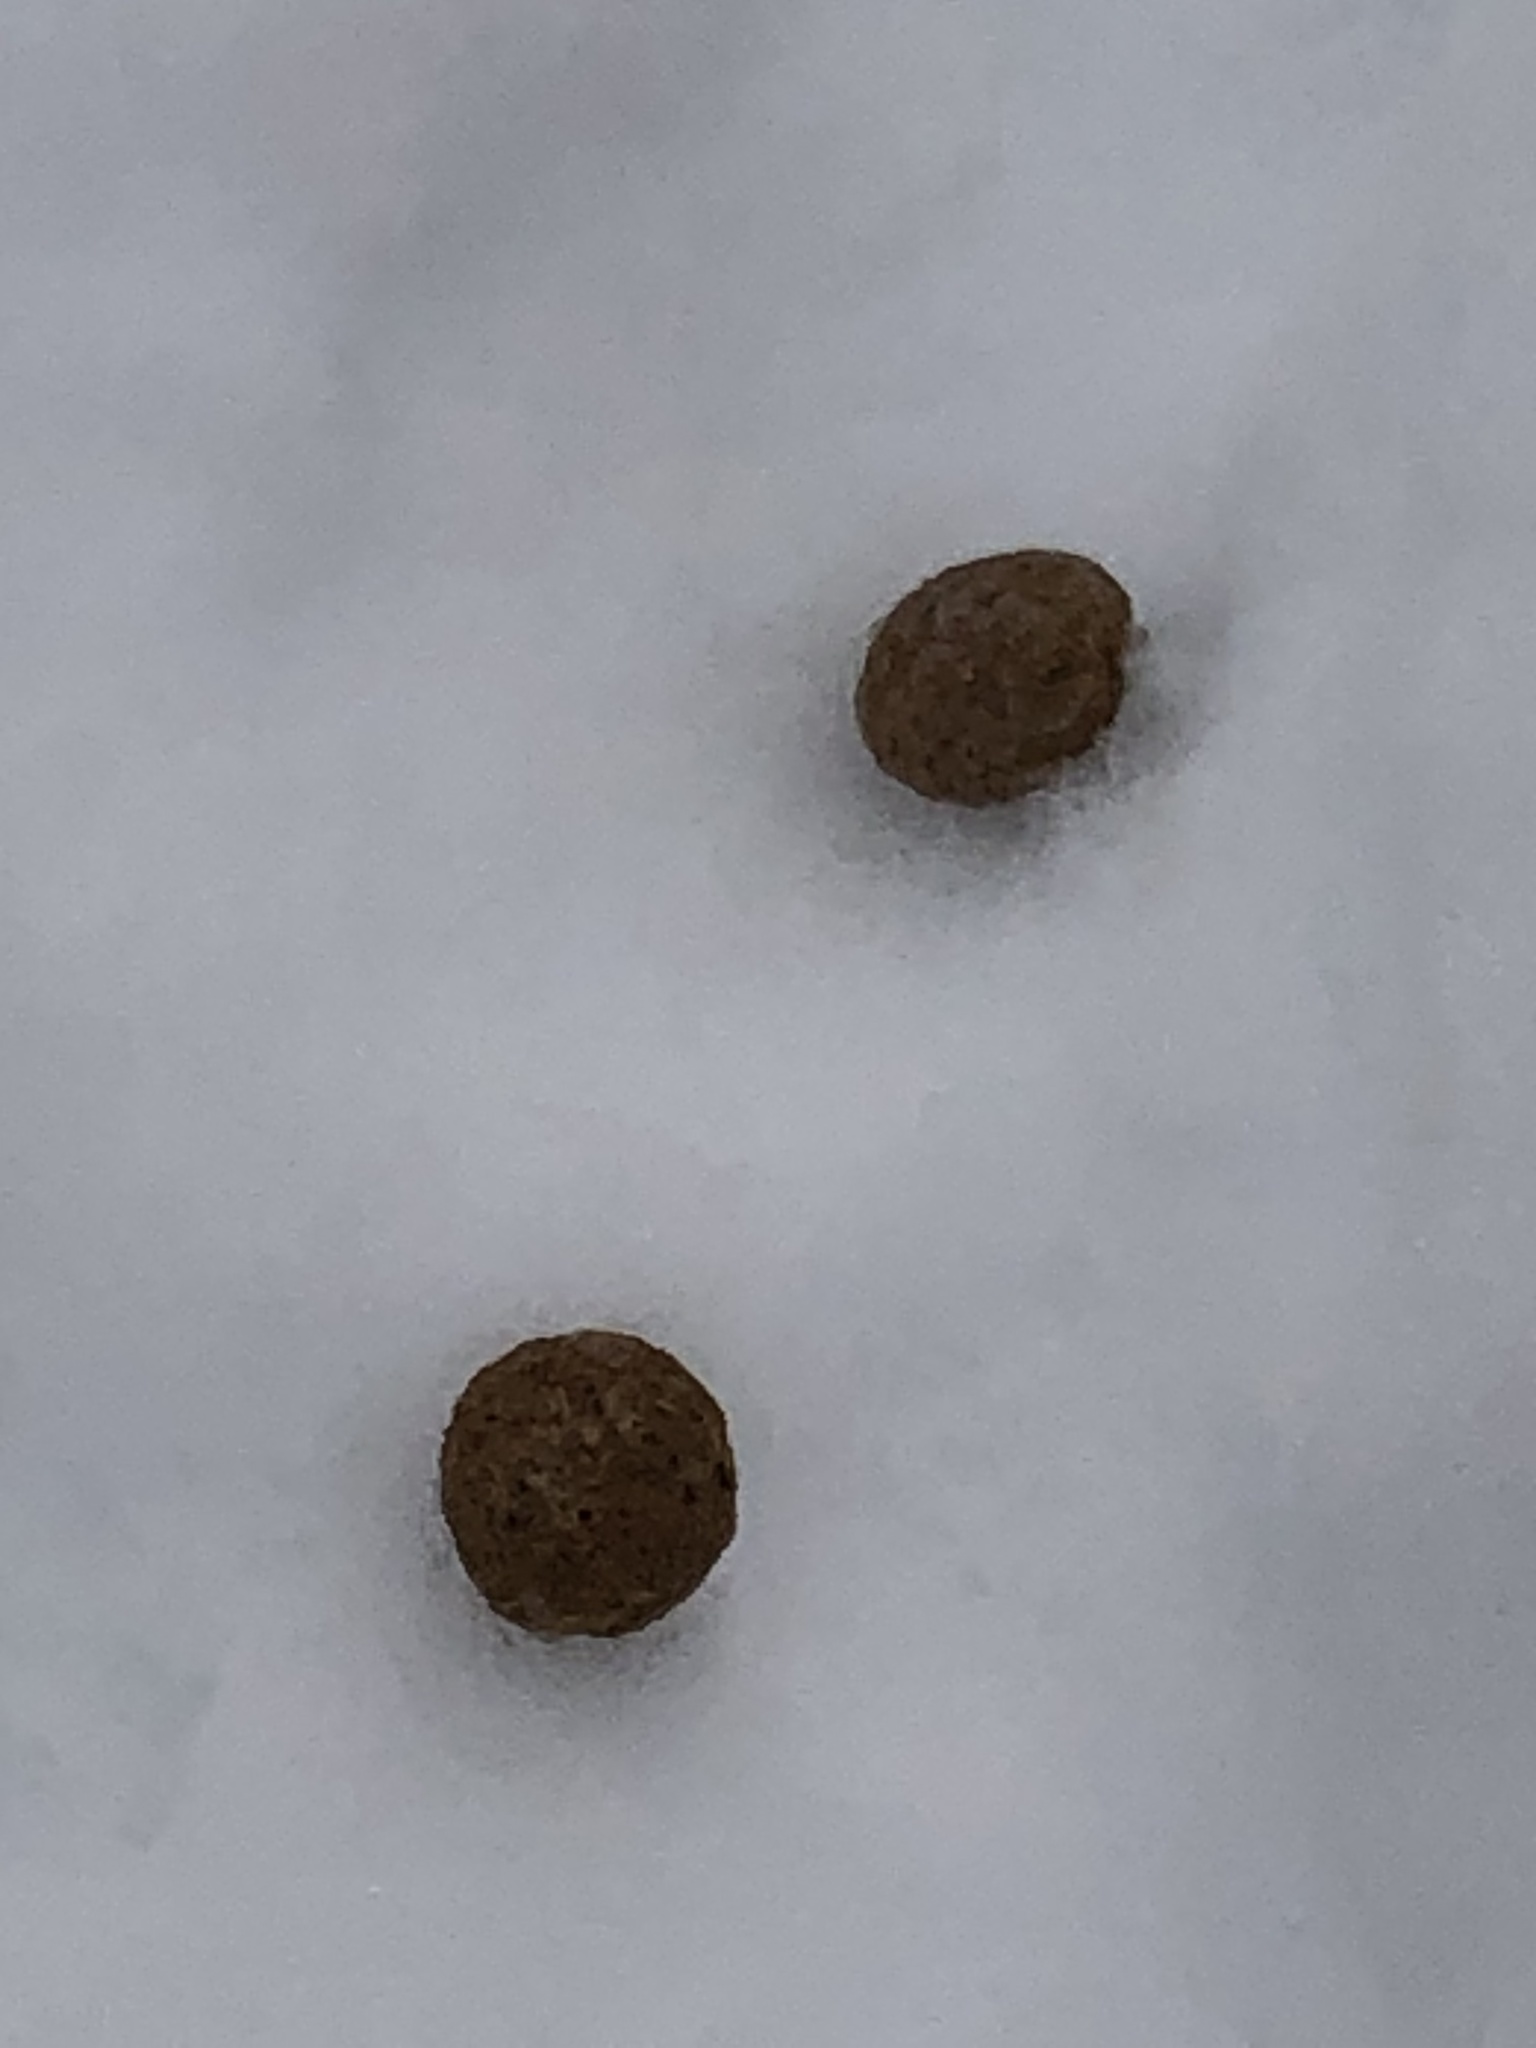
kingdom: Animalia
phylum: Chordata
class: Mammalia
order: Lagomorpha
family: Leporidae
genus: Sylvilagus
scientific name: Sylvilagus floridanus
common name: Eastern cottontail
